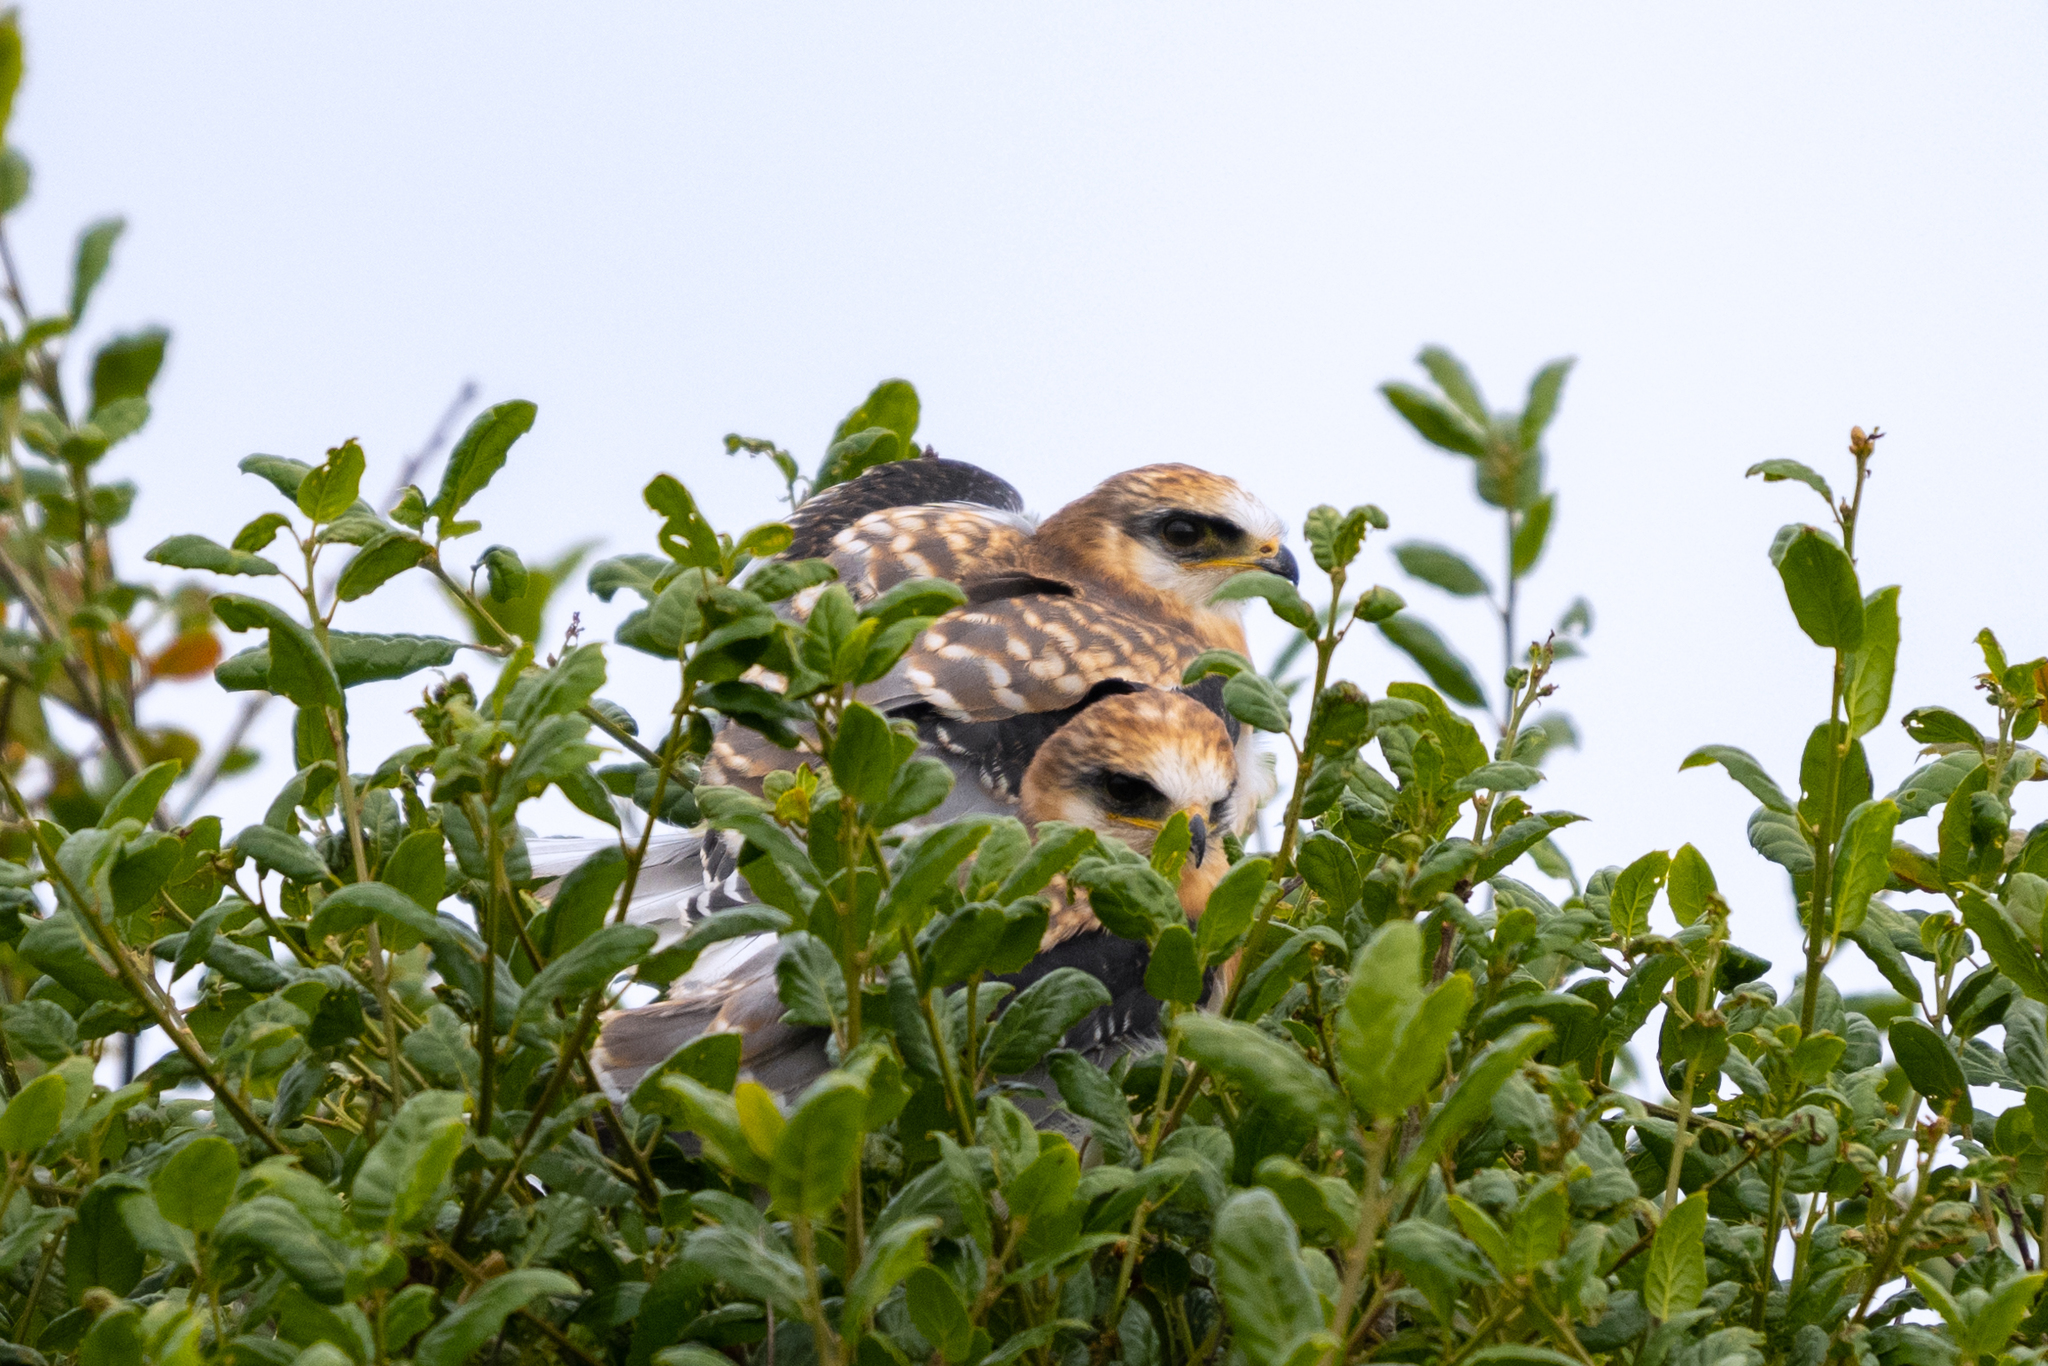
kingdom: Animalia
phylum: Chordata
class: Aves
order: Accipitriformes
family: Accipitridae
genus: Elanus
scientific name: Elanus leucurus
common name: White-tailed kite
